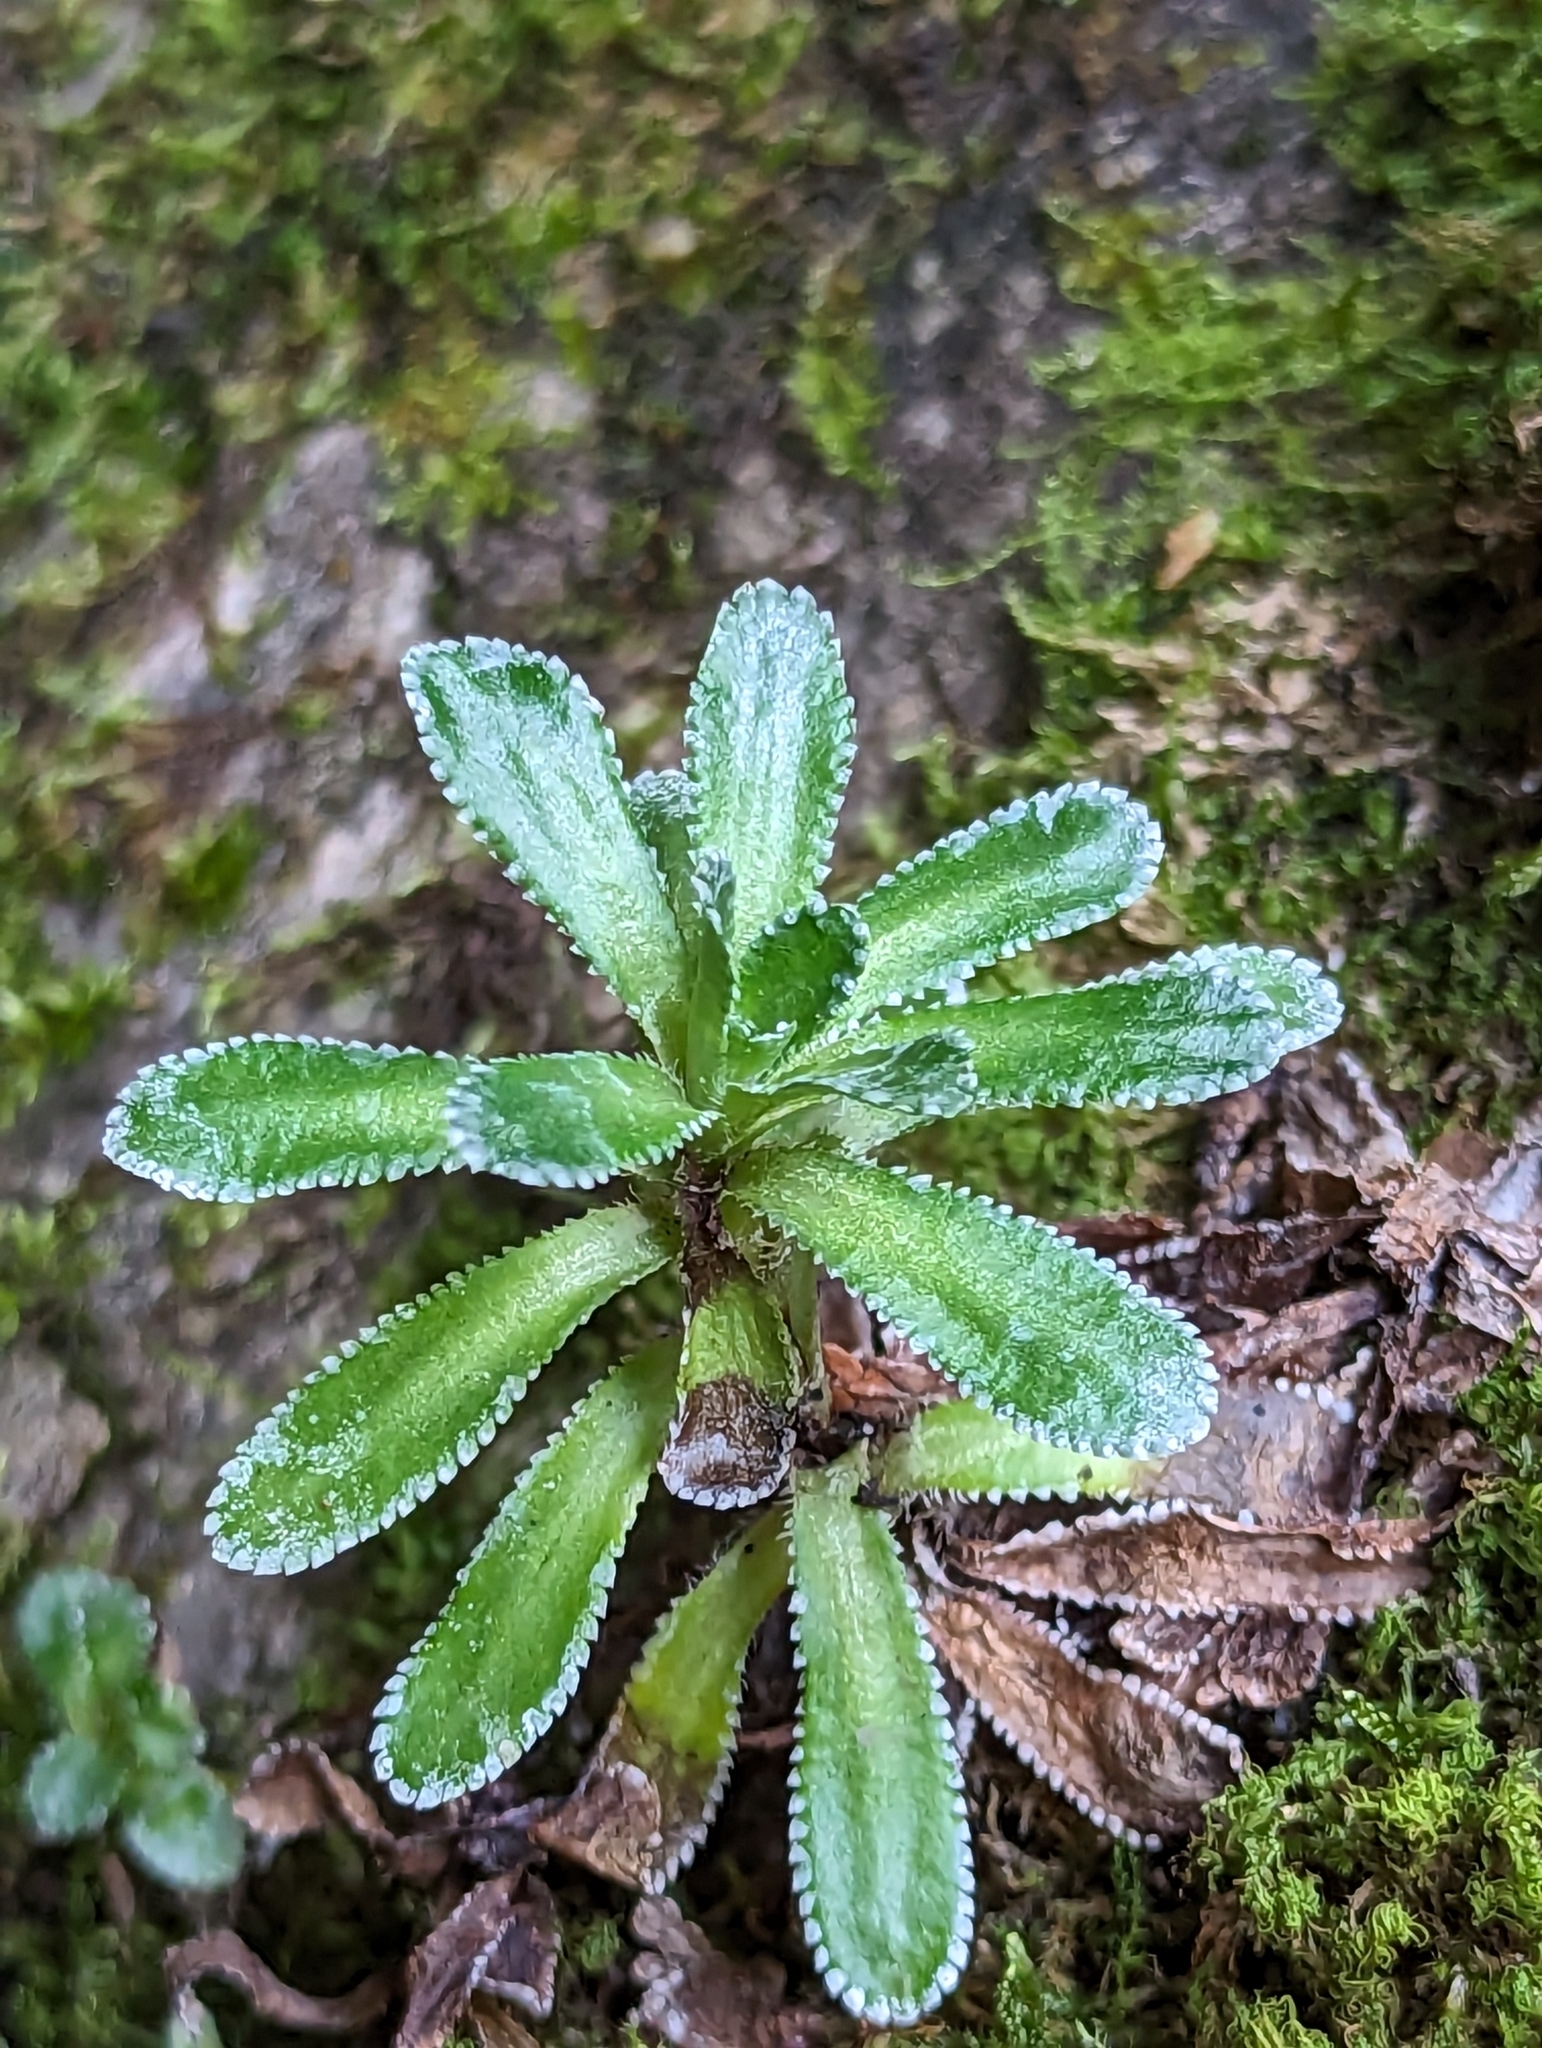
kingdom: Plantae
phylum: Tracheophyta
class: Magnoliopsida
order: Saxifragales
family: Saxifragaceae
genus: Saxifraga
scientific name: Saxifraga paniculata
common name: Livelong saxifrage
